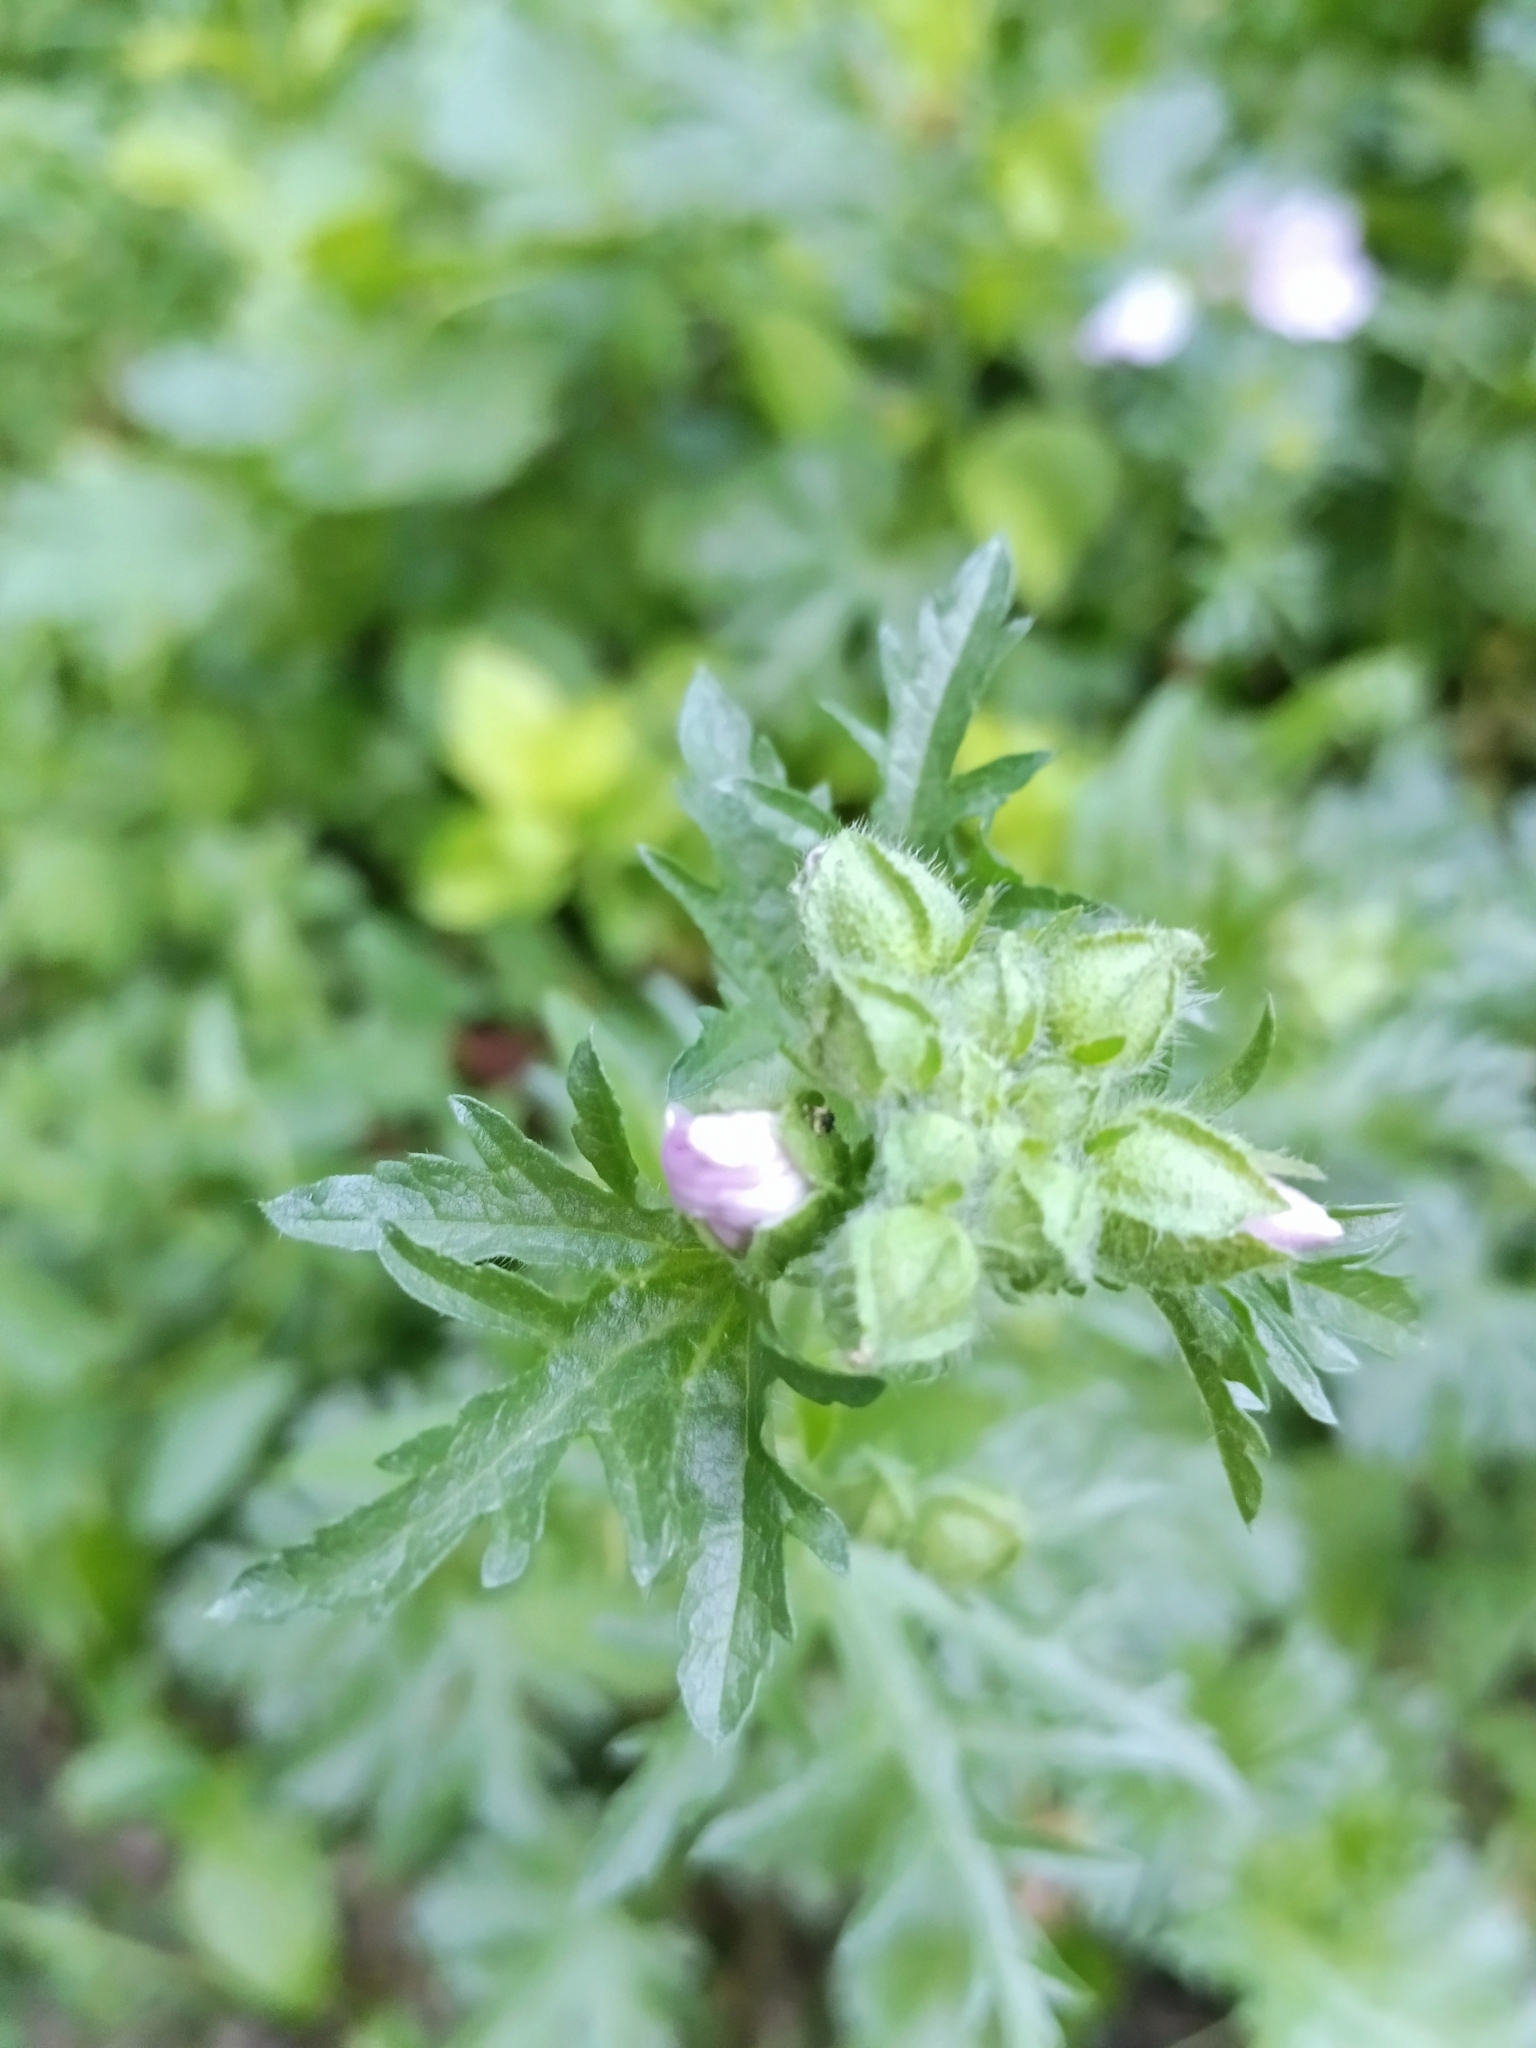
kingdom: Plantae
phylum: Tracheophyta
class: Magnoliopsida
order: Malvales
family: Malvaceae
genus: Malva
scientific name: Malva moschata
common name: Musk mallow
